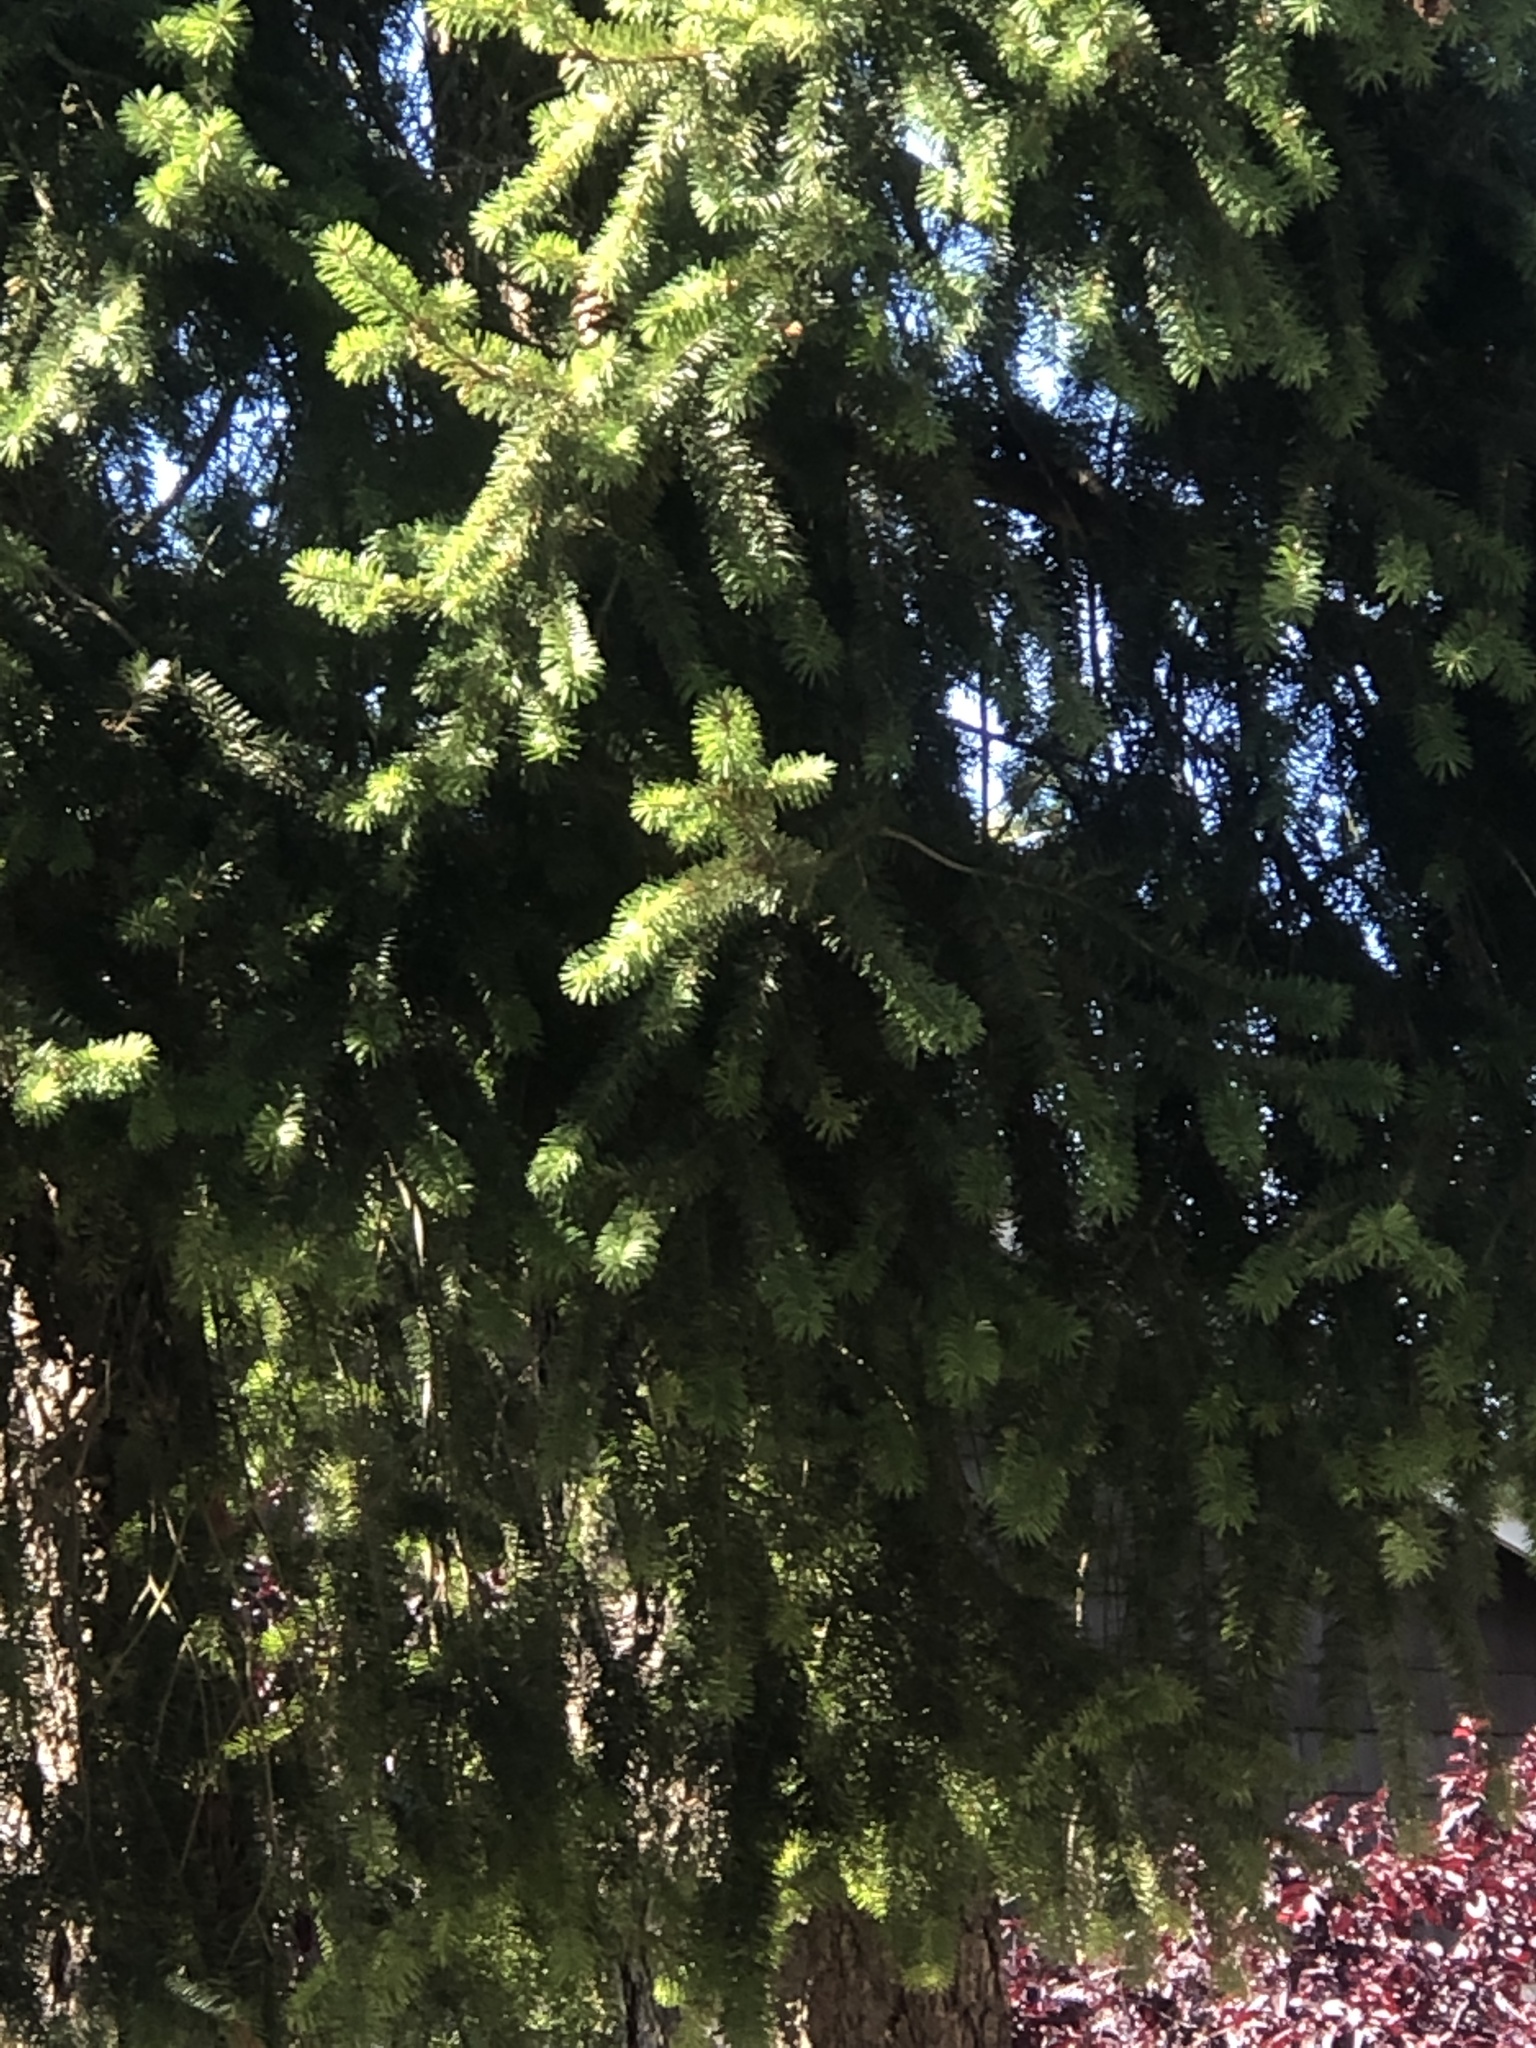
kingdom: Plantae
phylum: Tracheophyta
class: Pinopsida
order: Pinales
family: Pinaceae
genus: Pseudotsuga
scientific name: Pseudotsuga menziesii
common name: Douglas fir
